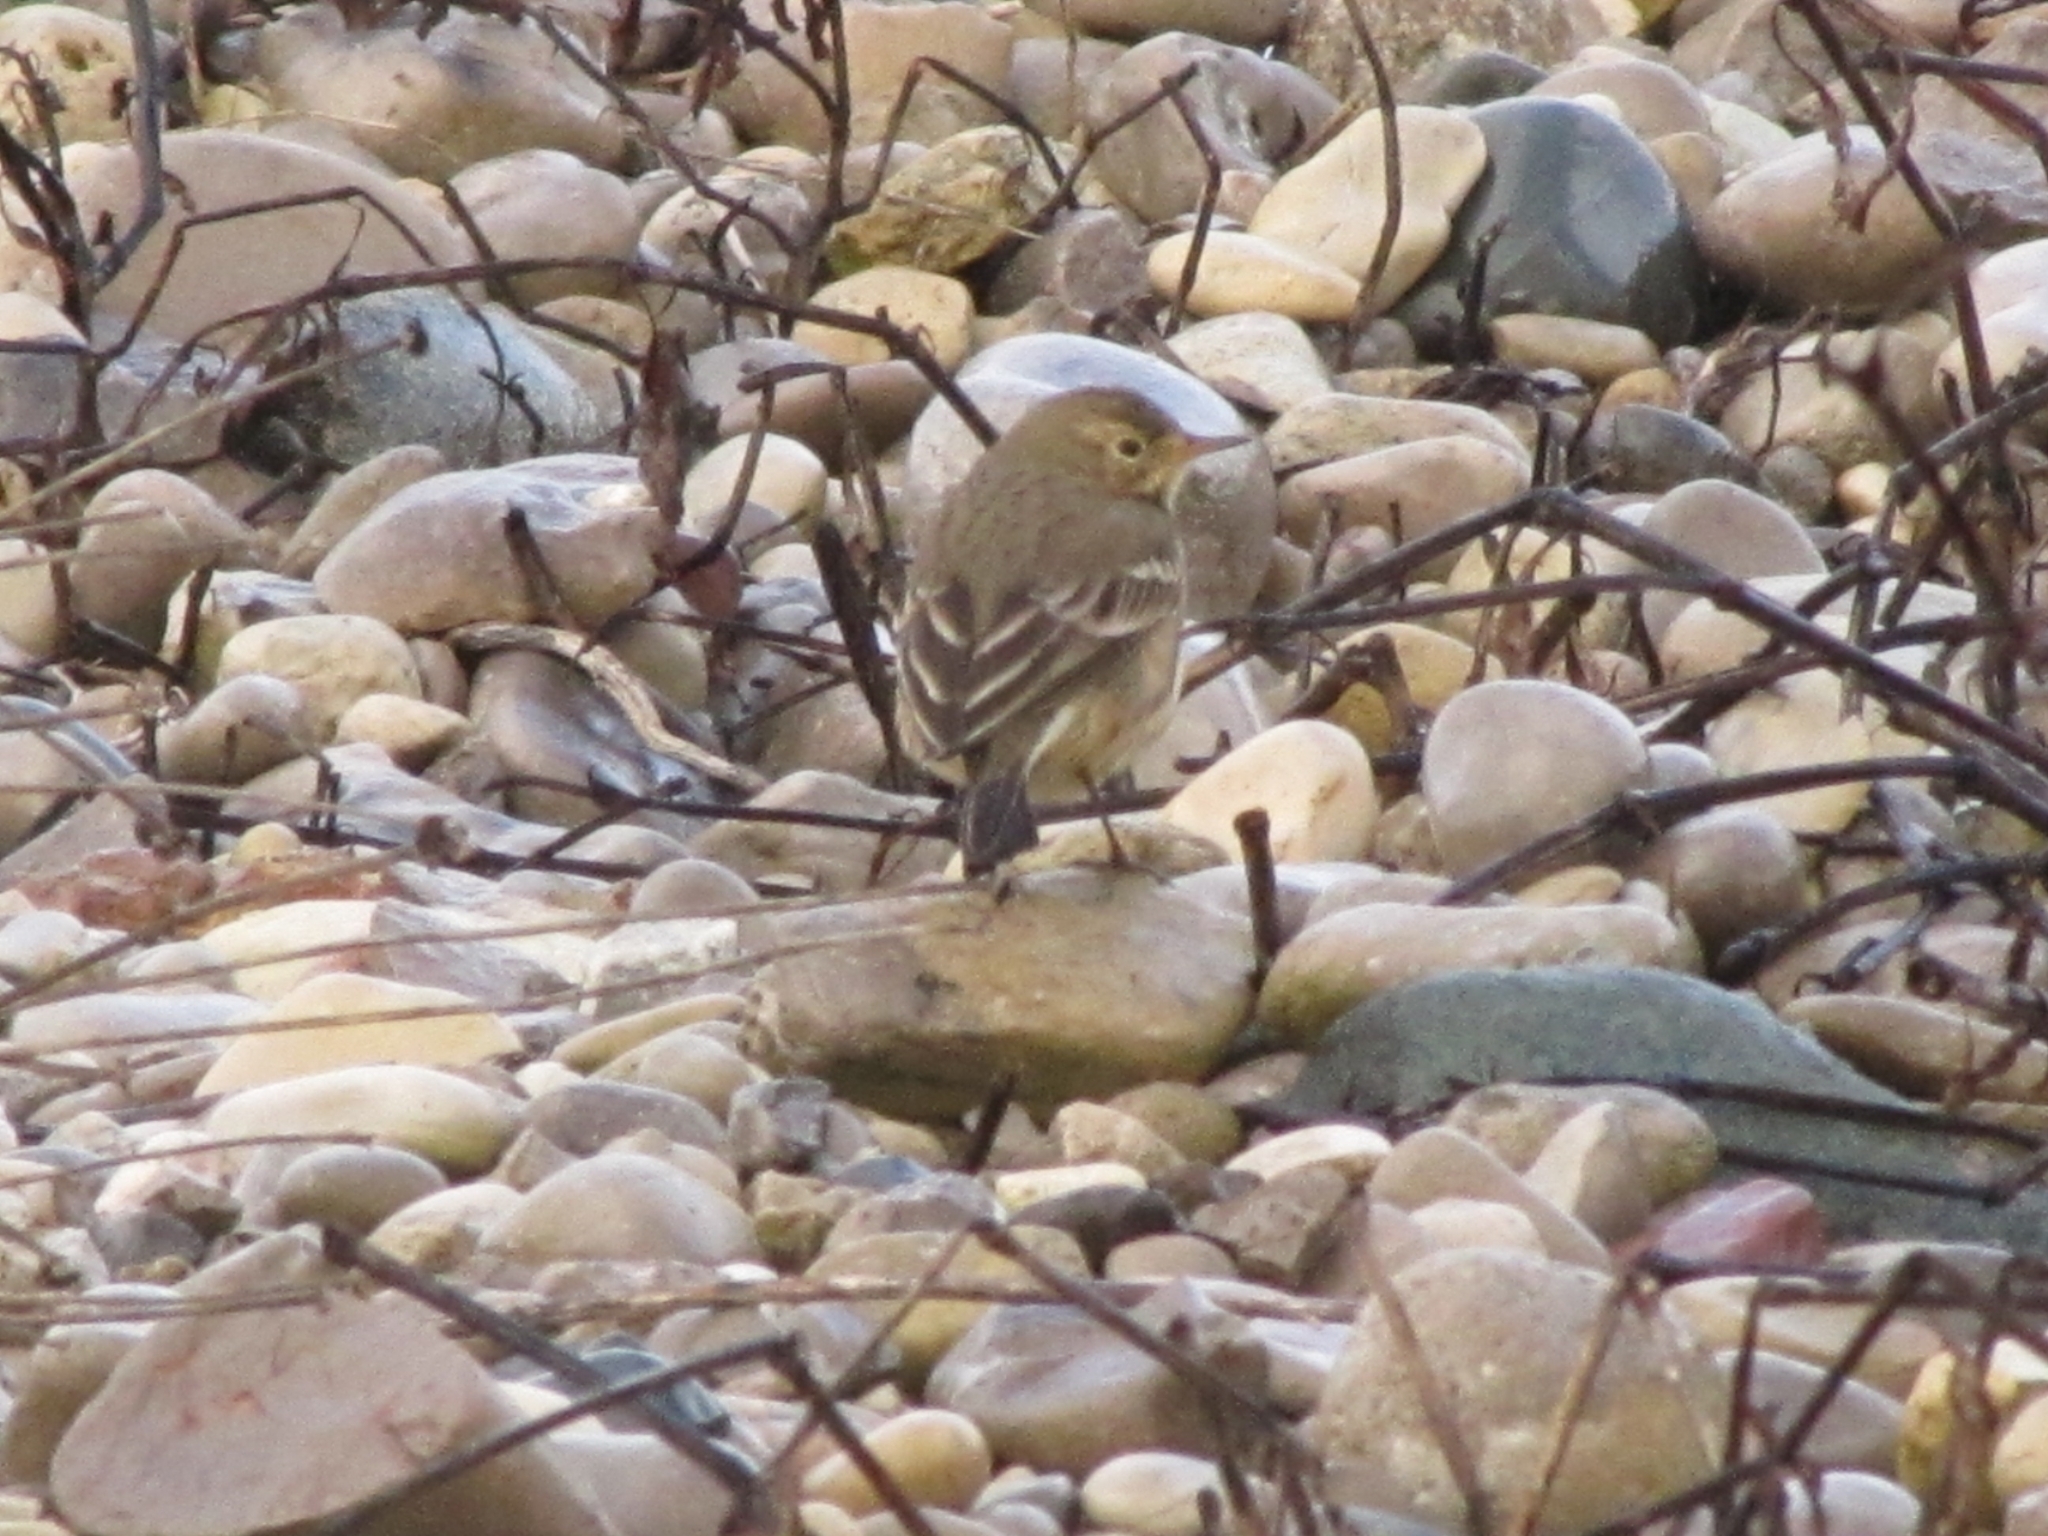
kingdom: Animalia
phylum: Chordata
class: Aves
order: Passeriformes
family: Motacillidae
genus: Anthus
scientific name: Anthus rubescens
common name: Buff-bellied pipit
